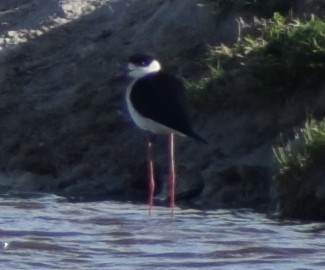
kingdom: Animalia
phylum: Chordata
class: Aves
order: Charadriiformes
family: Recurvirostridae
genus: Himantopus
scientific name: Himantopus himantopus
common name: Black-winged stilt
